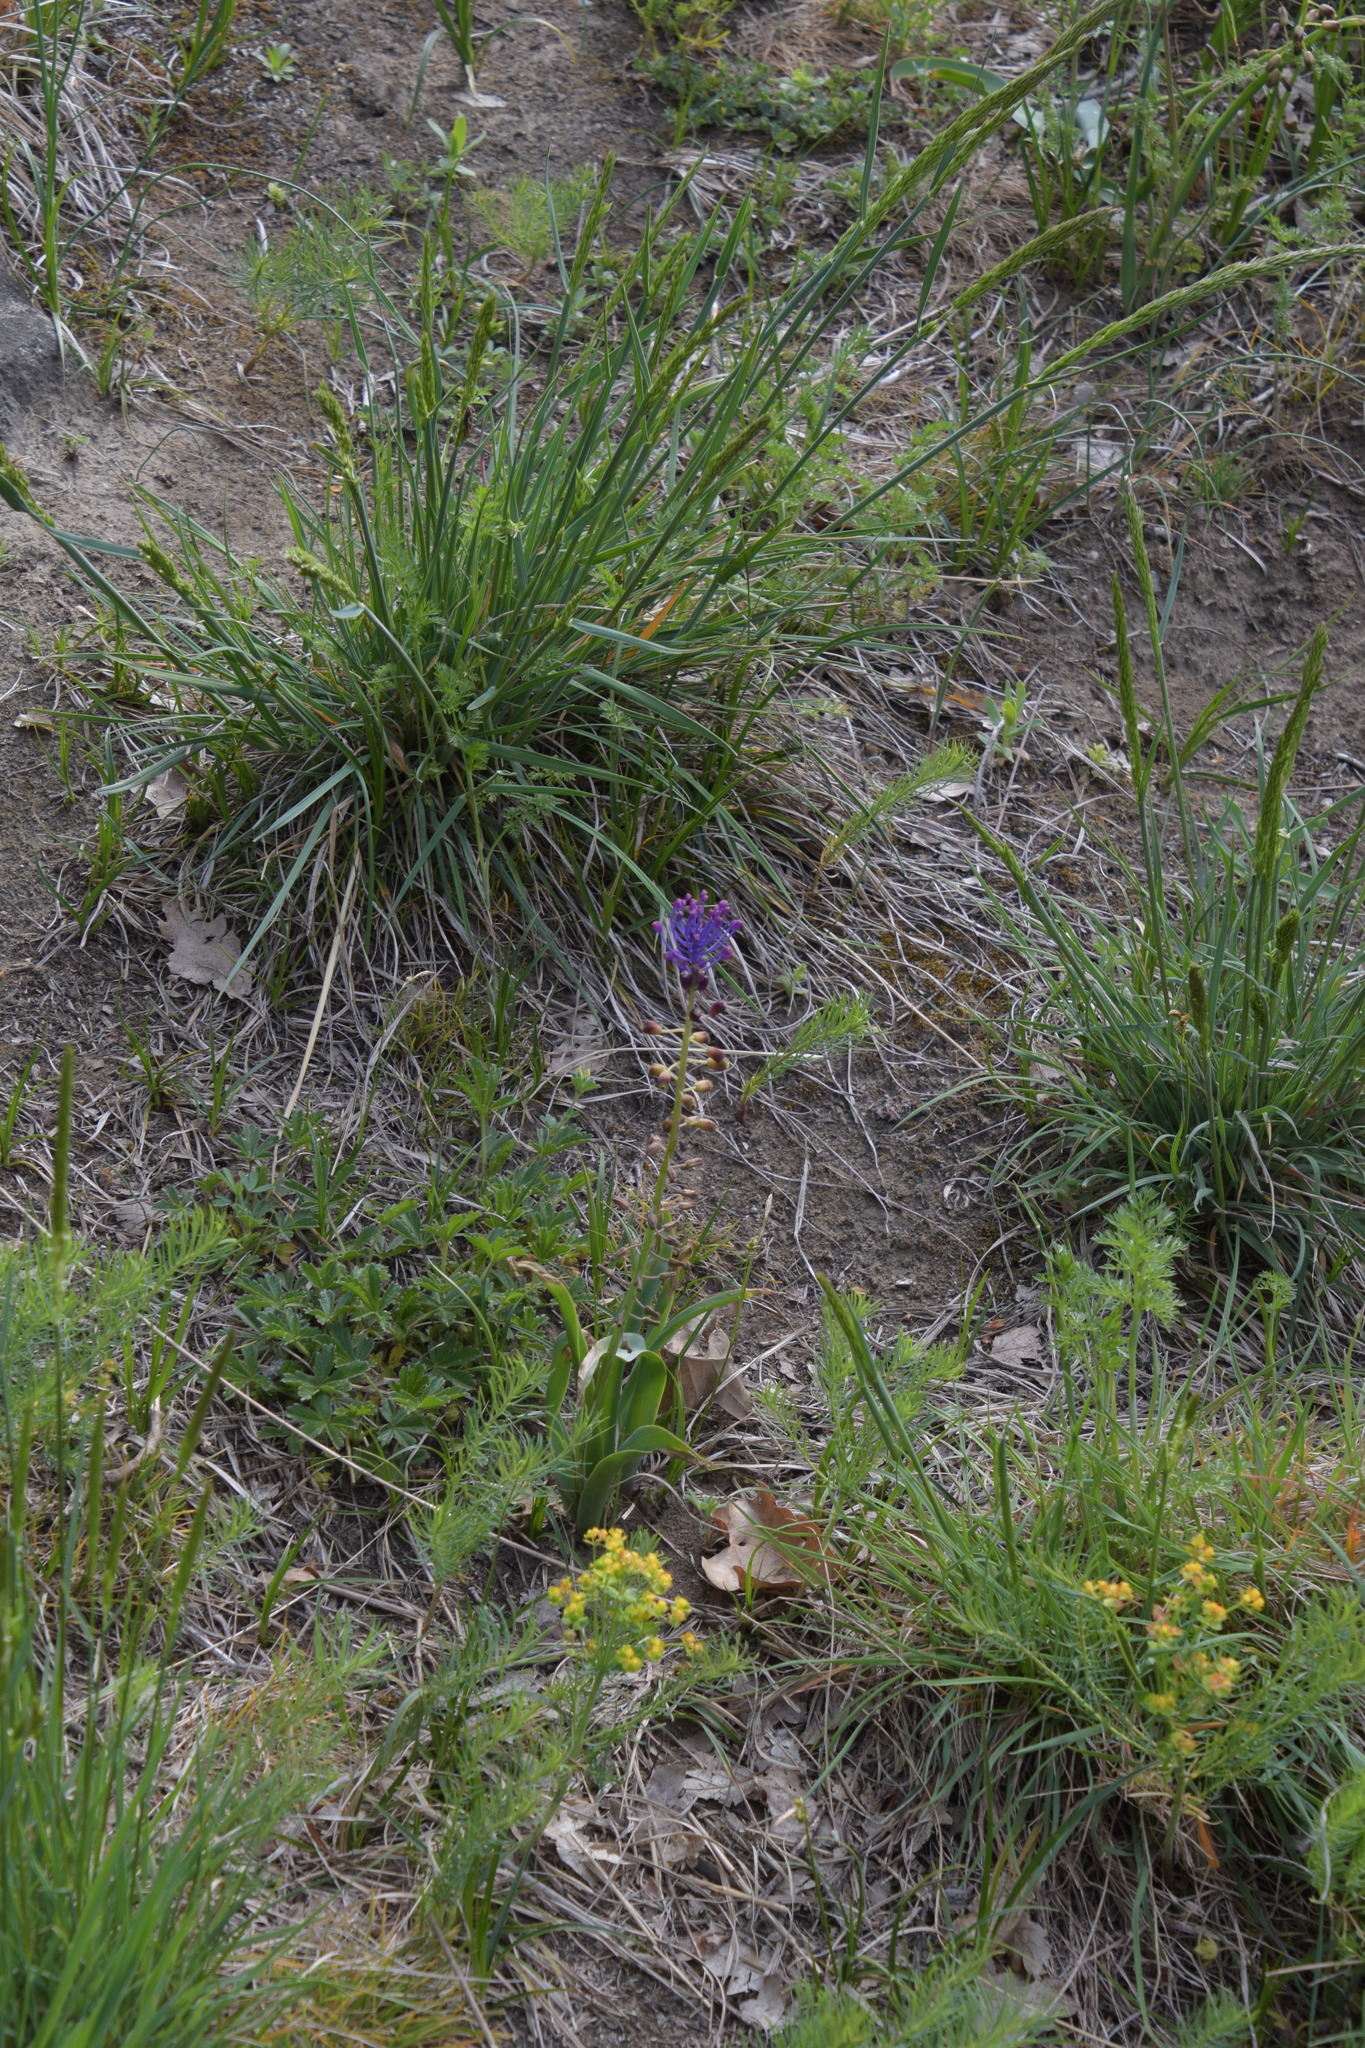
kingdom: Plantae
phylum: Tracheophyta
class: Liliopsida
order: Asparagales
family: Asparagaceae
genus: Muscari
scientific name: Muscari comosum
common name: Tassel hyacinth
